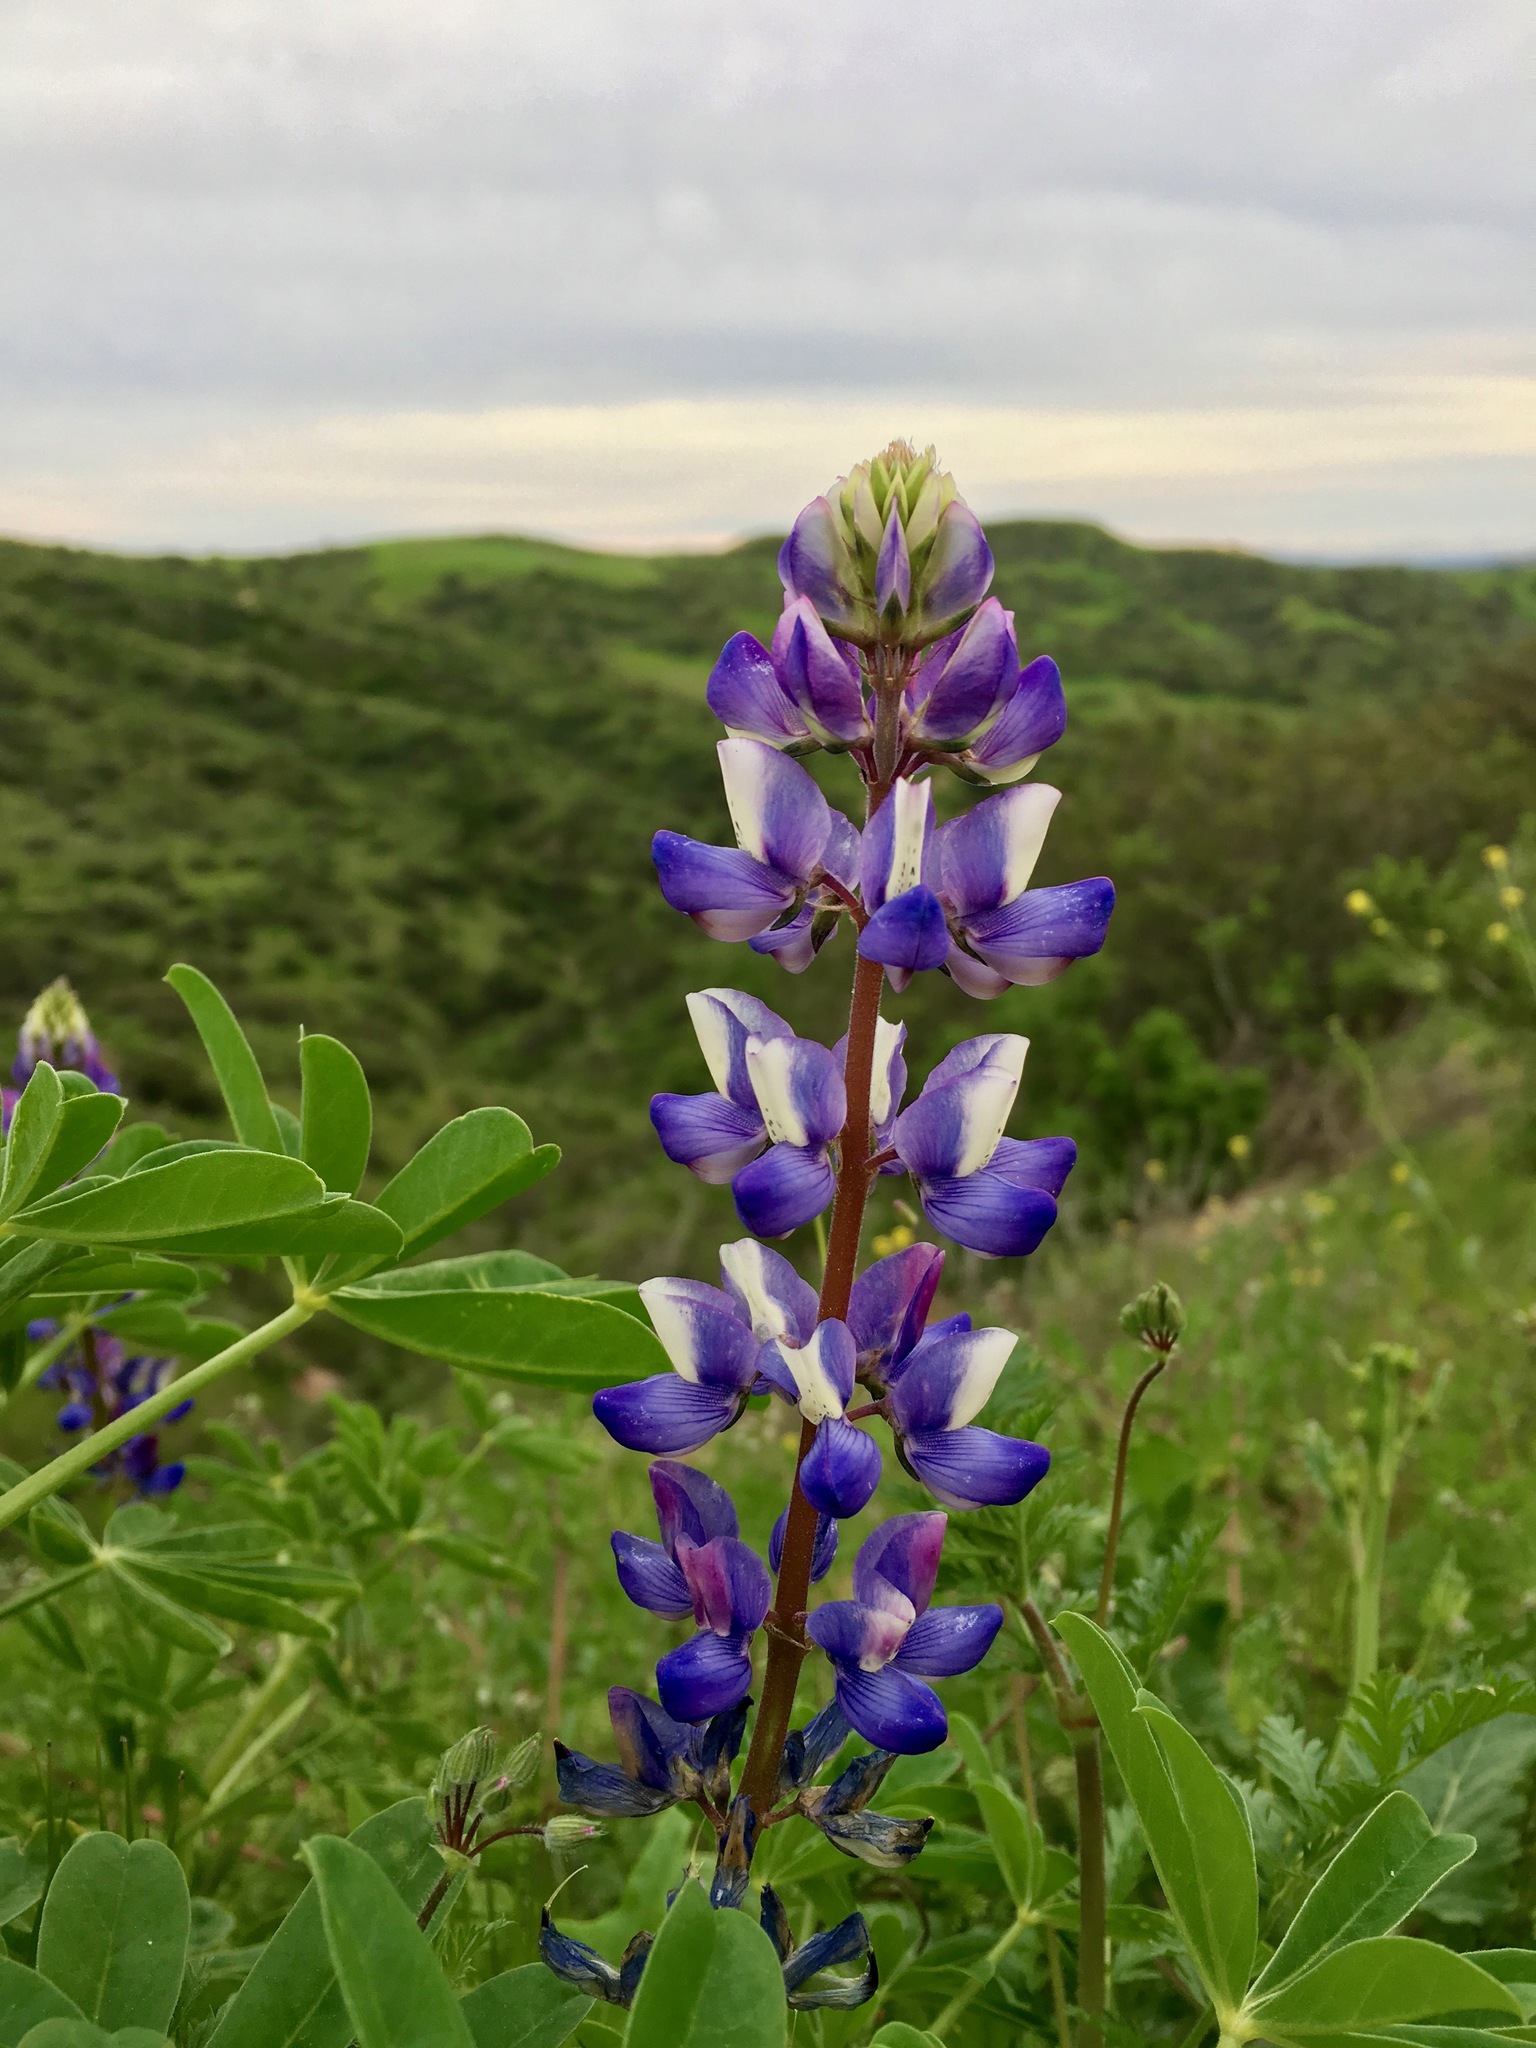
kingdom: Plantae
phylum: Tracheophyta
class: Magnoliopsida
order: Fabales
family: Fabaceae
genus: Lupinus
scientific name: Lupinus succulentus
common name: Arroyo lupine
